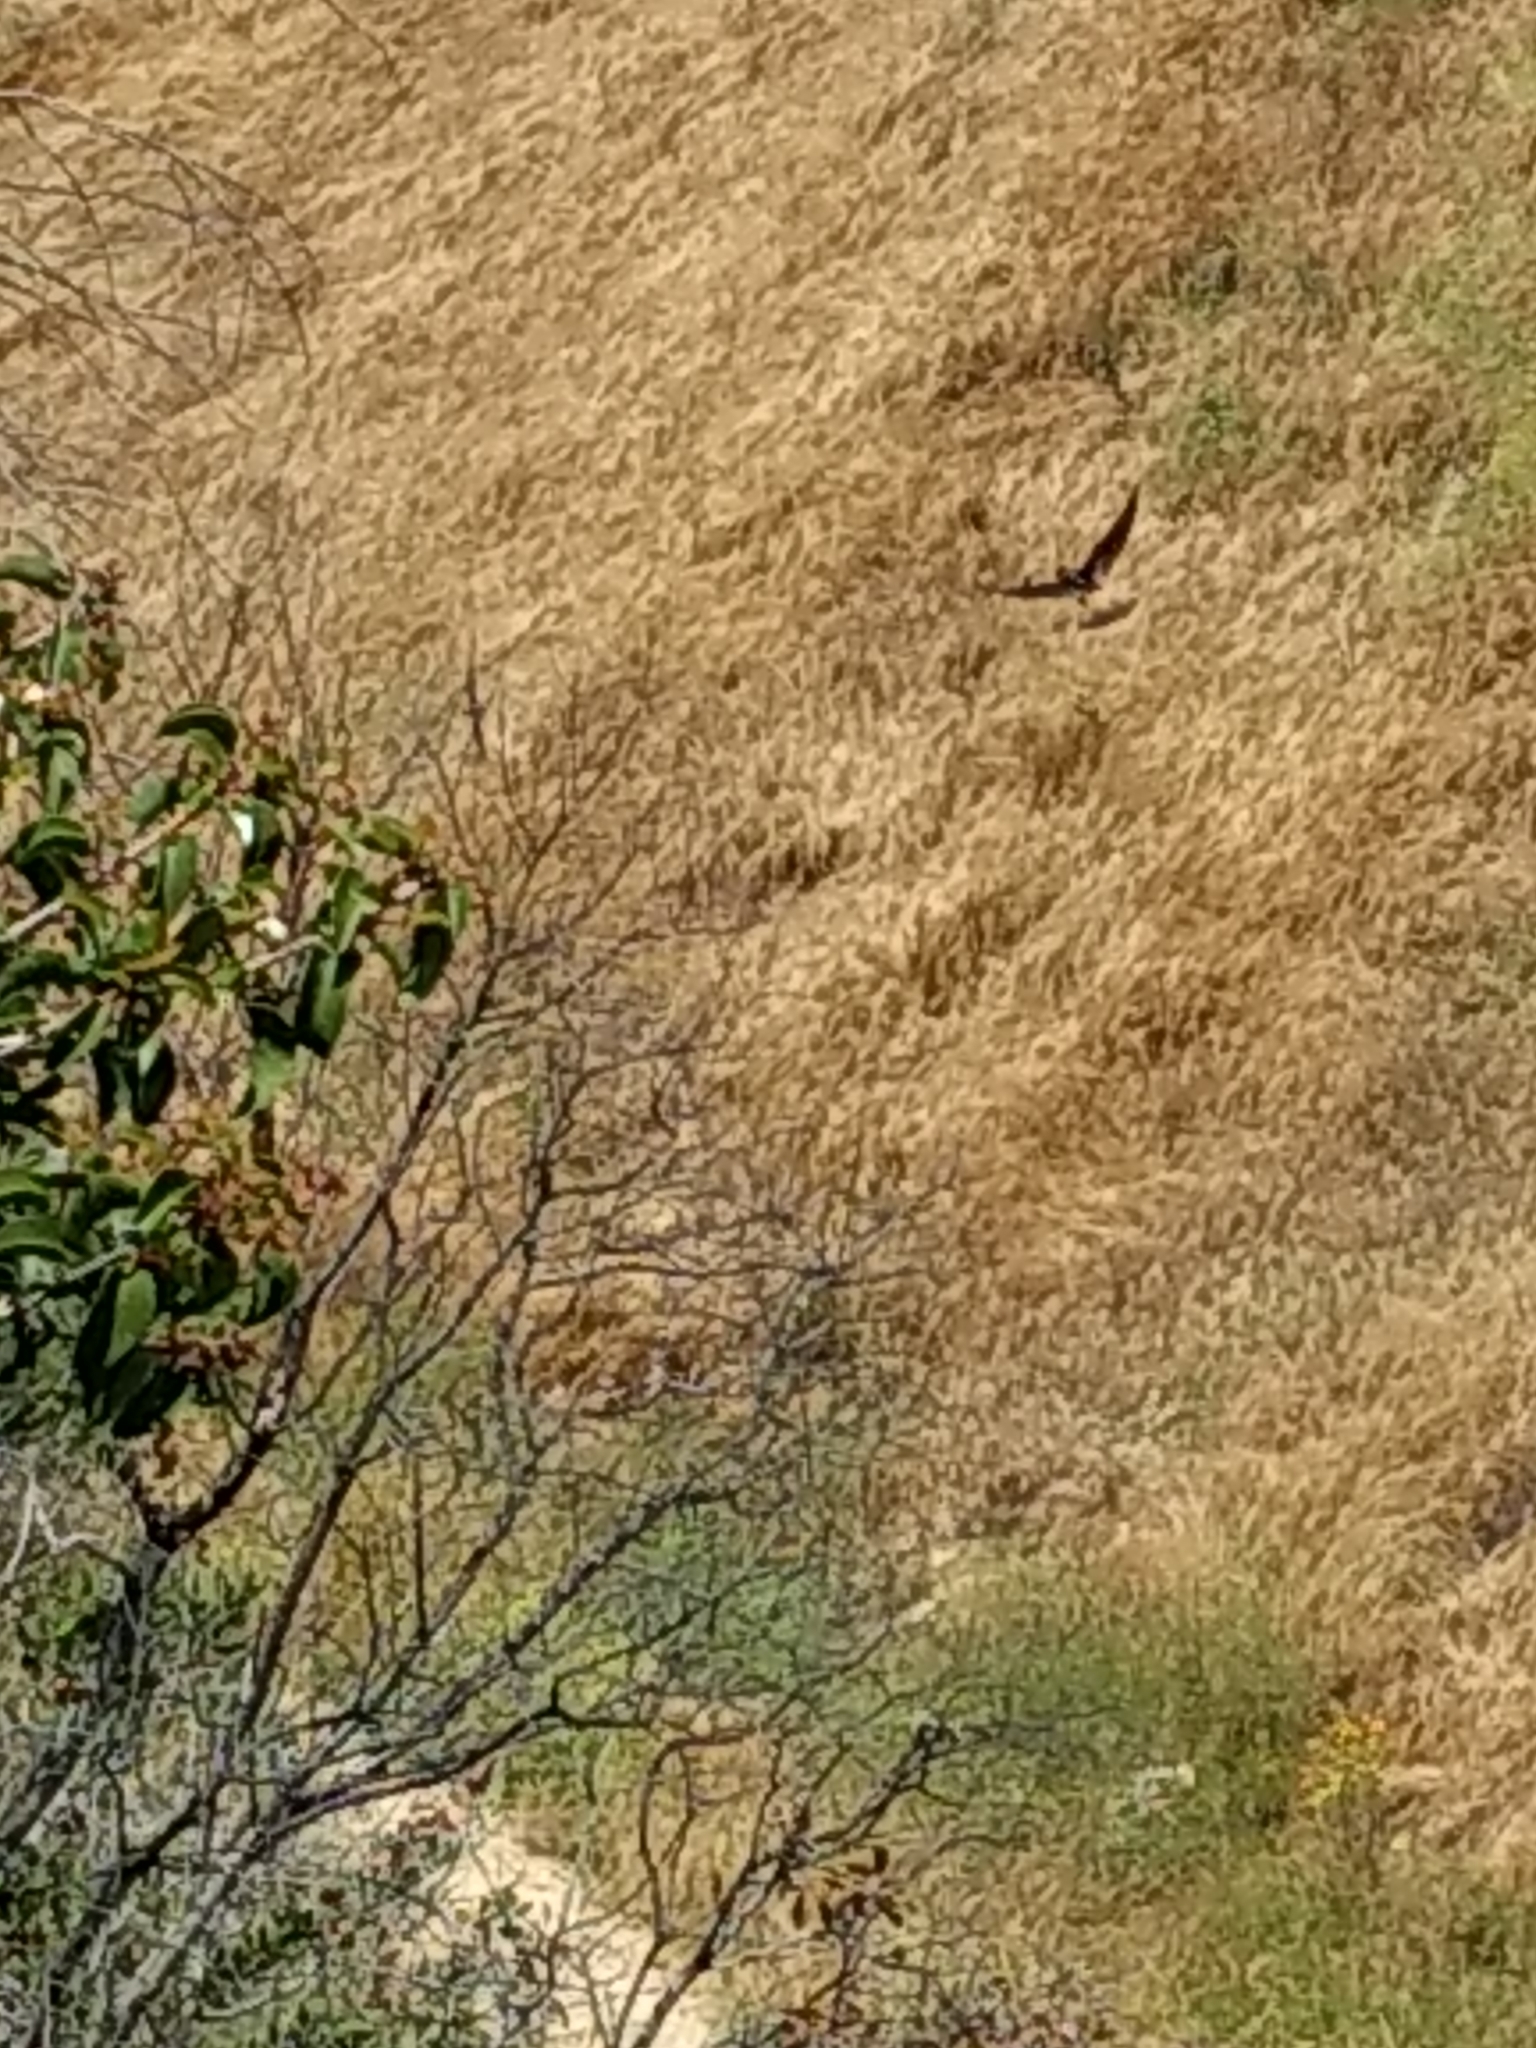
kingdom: Animalia
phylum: Chordata
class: Aves
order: Passeriformes
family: Hirundinidae
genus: Petrochelidon
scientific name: Petrochelidon pyrrhonota
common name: American cliff swallow
